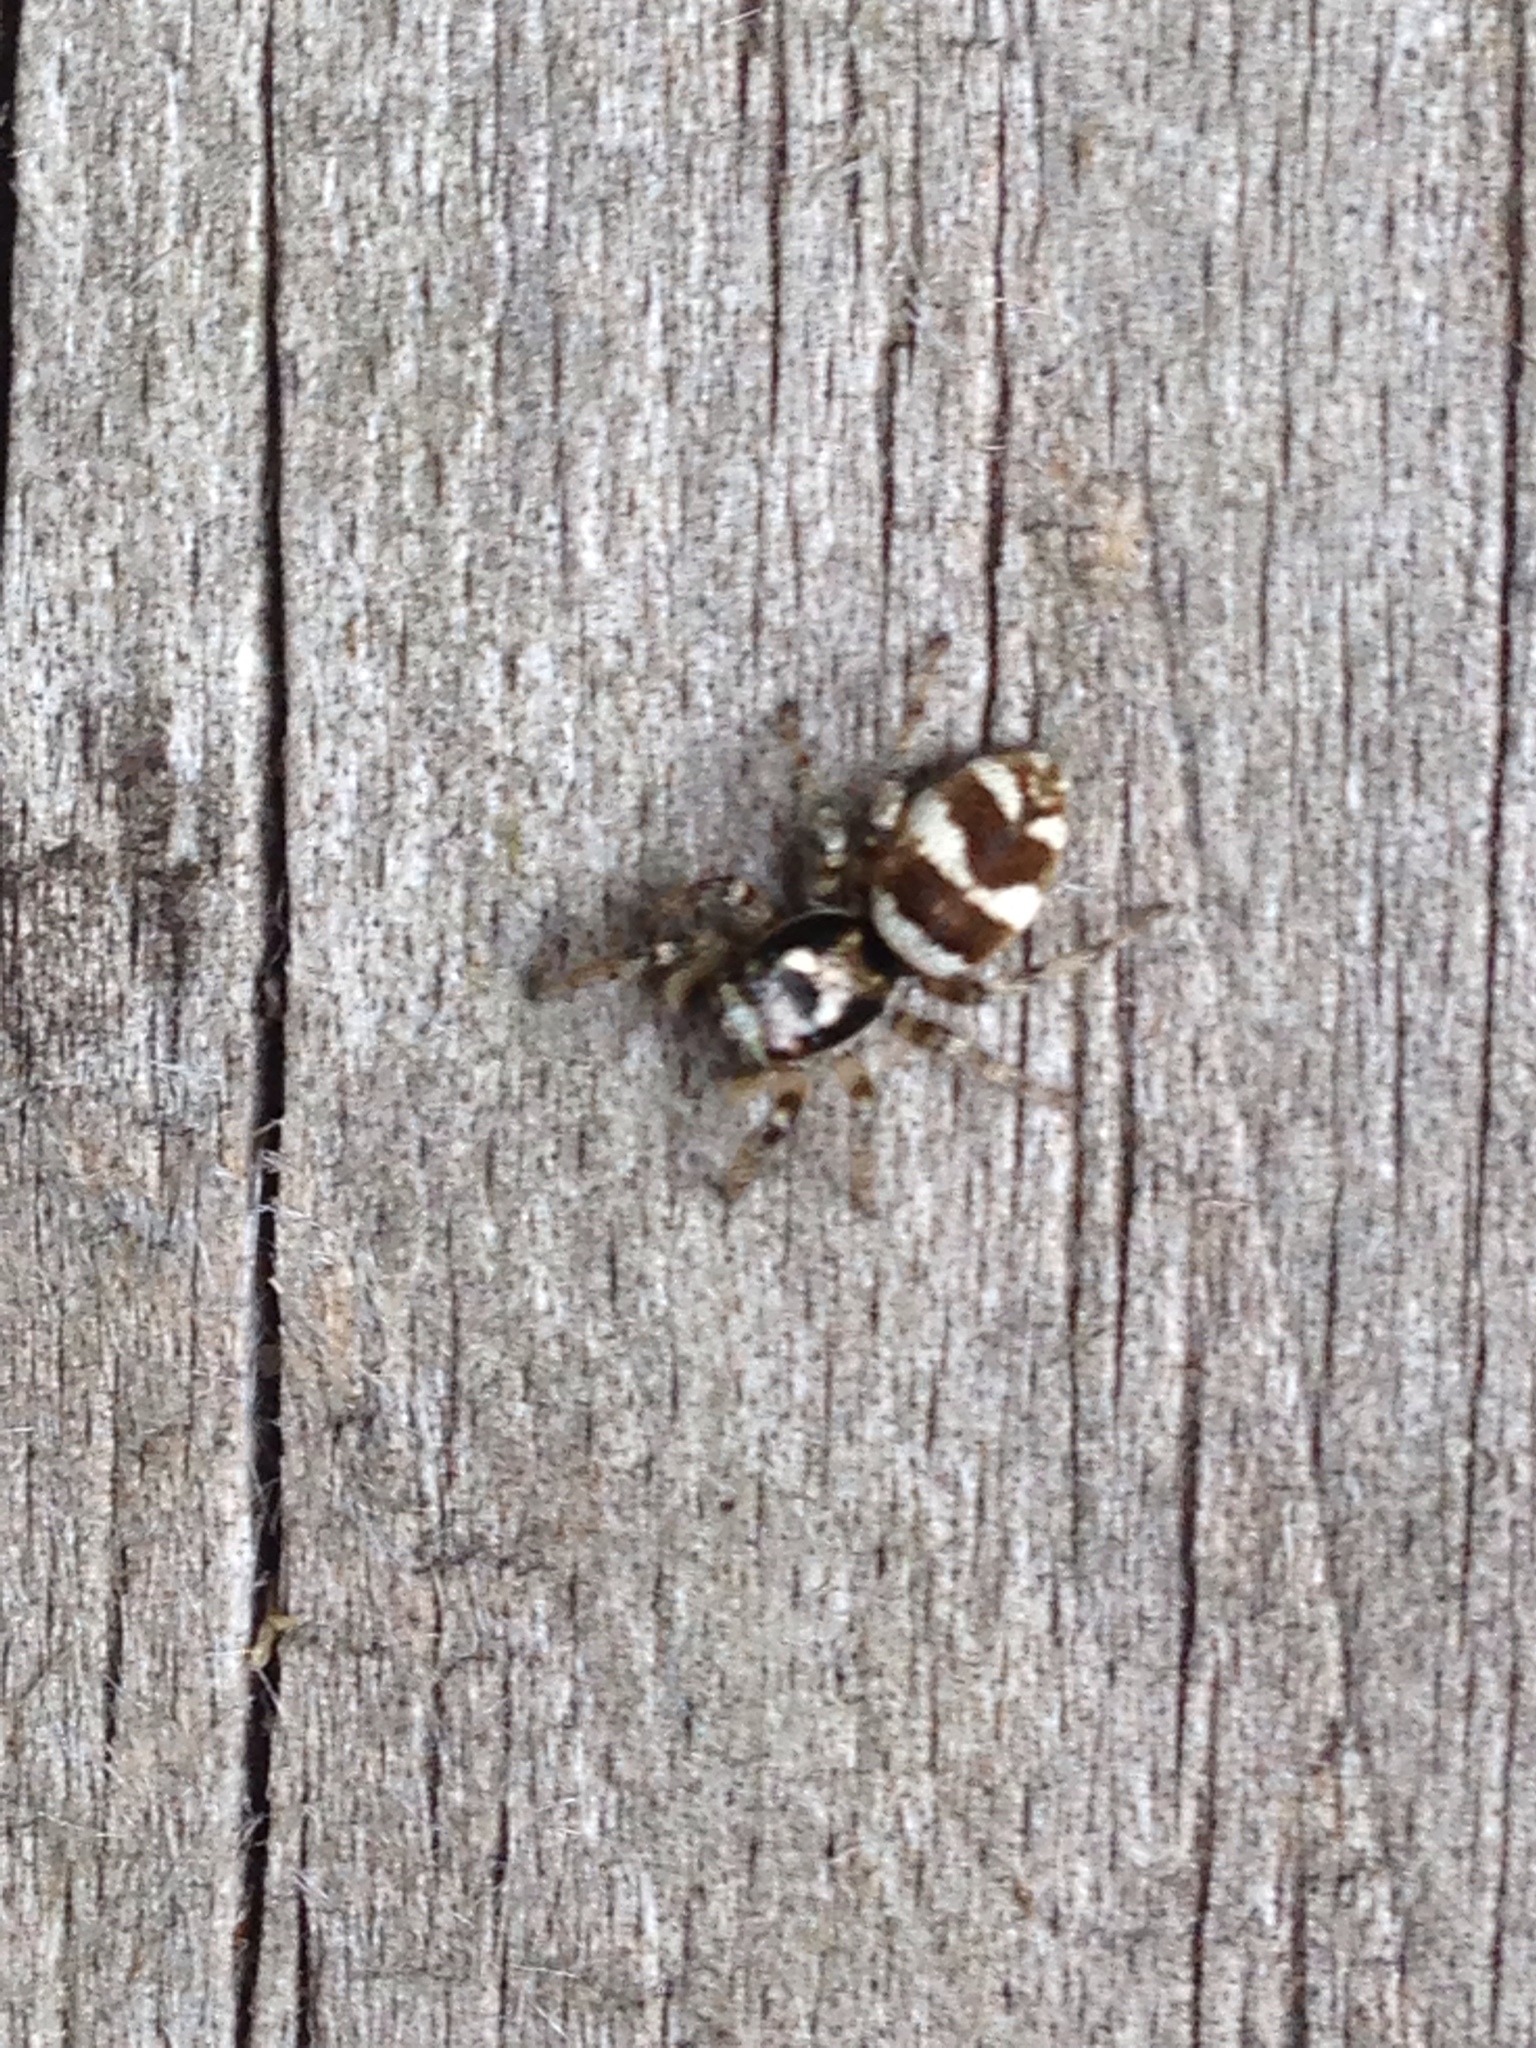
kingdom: Animalia
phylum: Arthropoda
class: Arachnida
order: Araneae
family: Salticidae
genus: Salticus
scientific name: Salticus scenicus
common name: Zebra jumper
